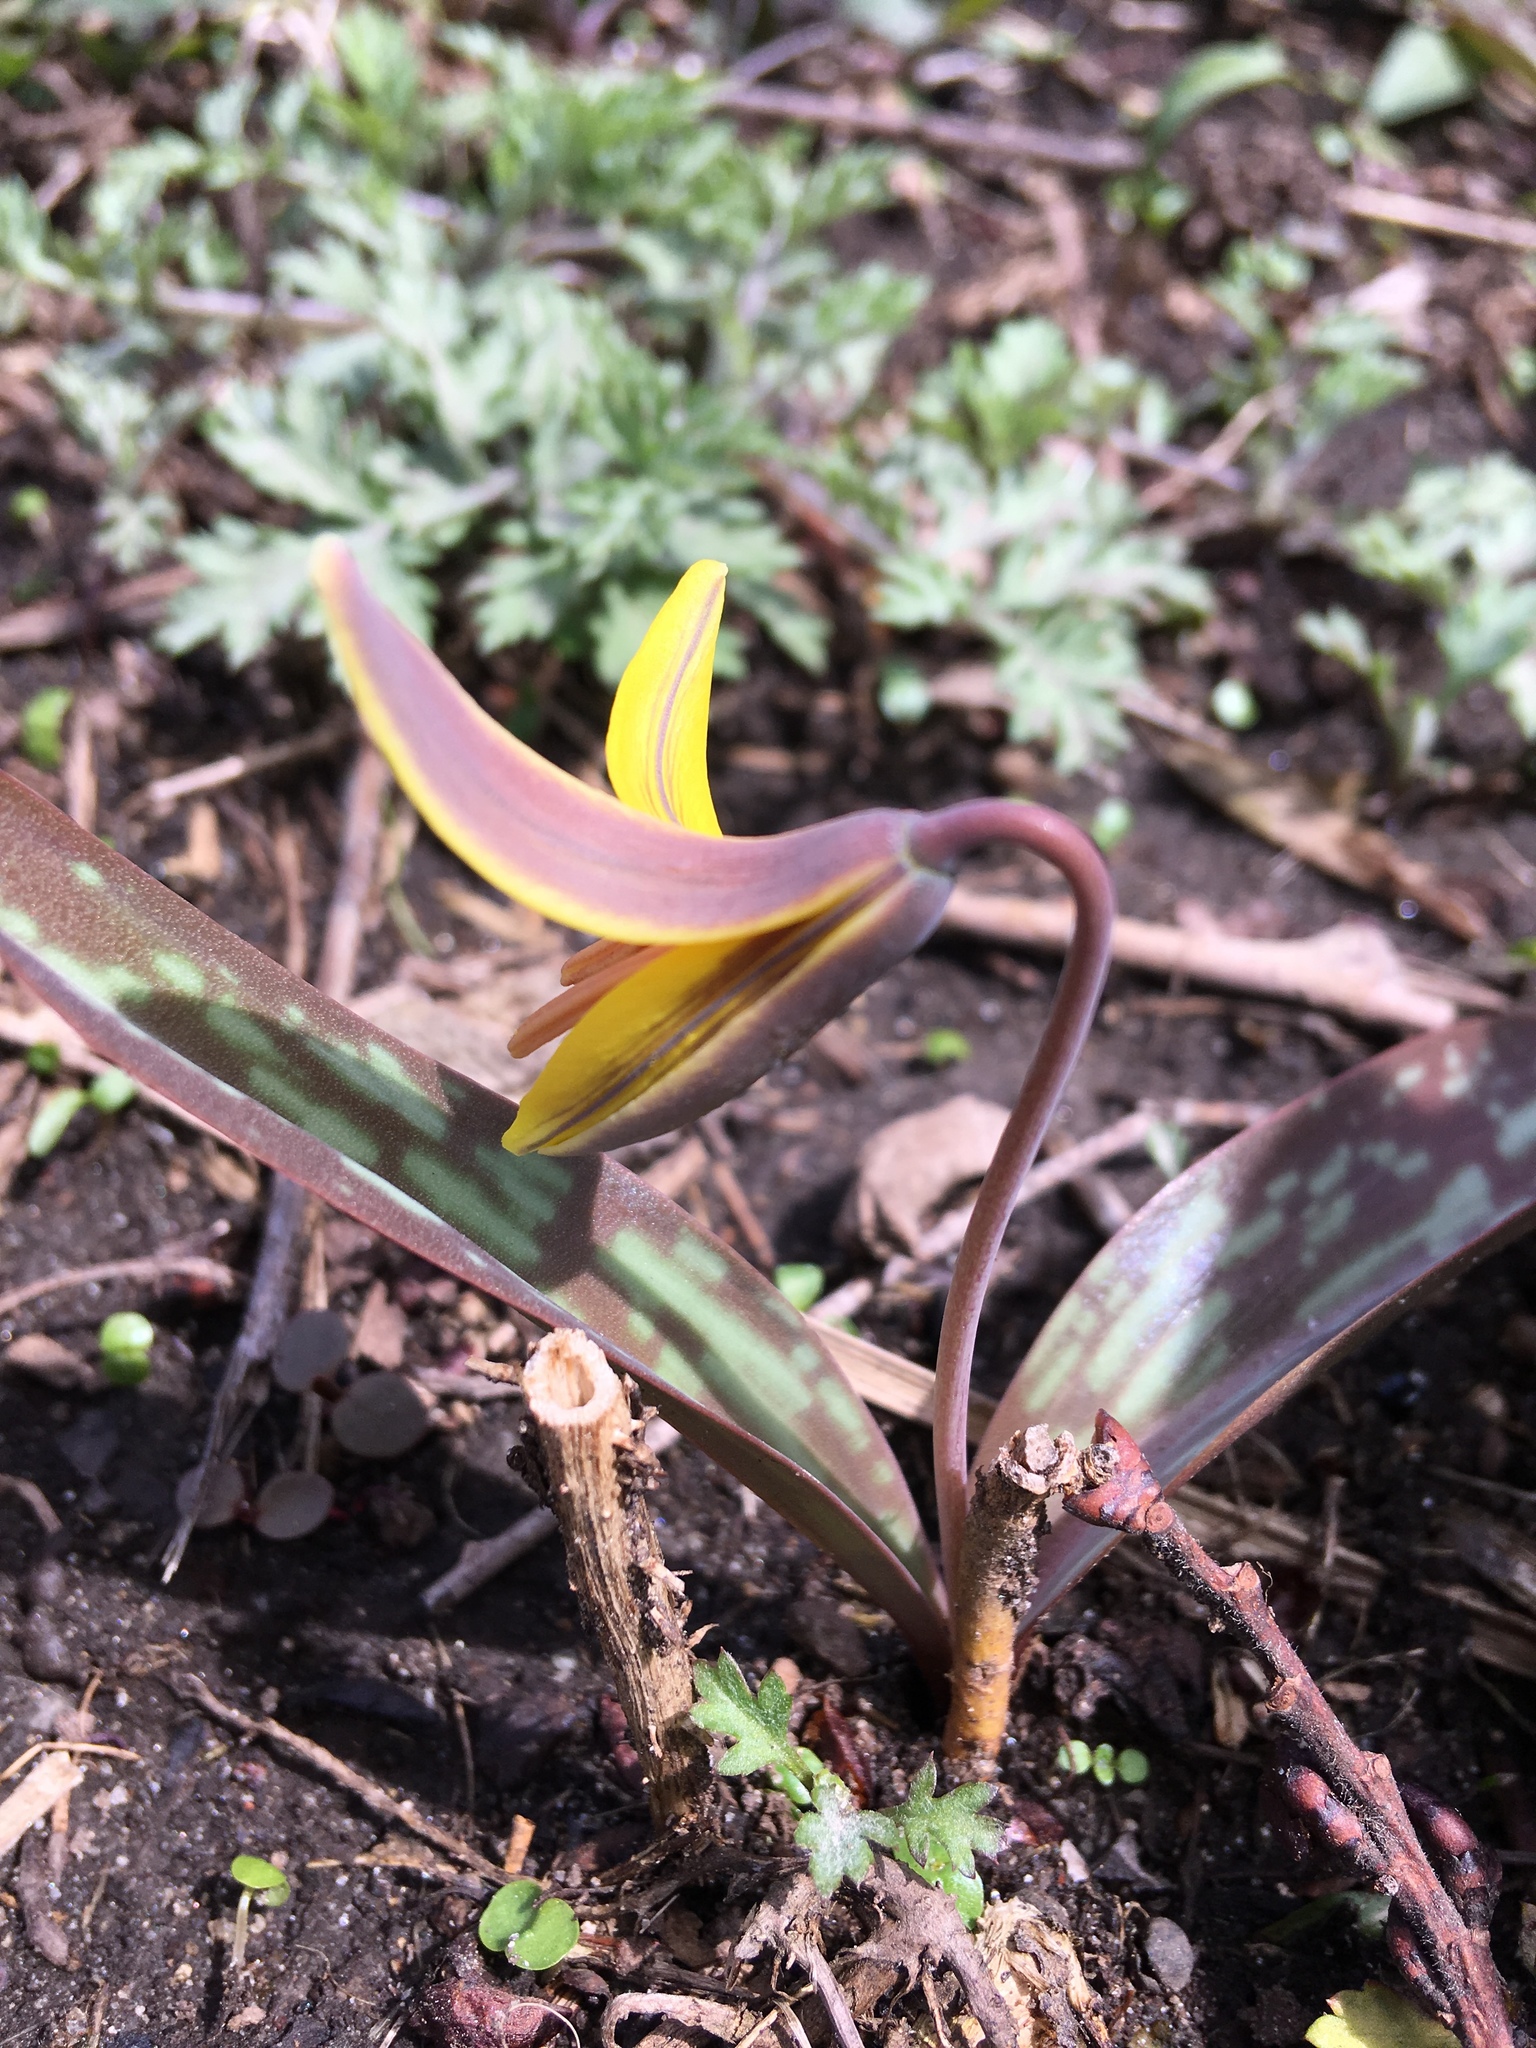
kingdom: Plantae
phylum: Tracheophyta
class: Liliopsida
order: Liliales
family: Liliaceae
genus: Erythronium
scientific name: Erythronium americanum
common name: Yellow adder's-tongue
